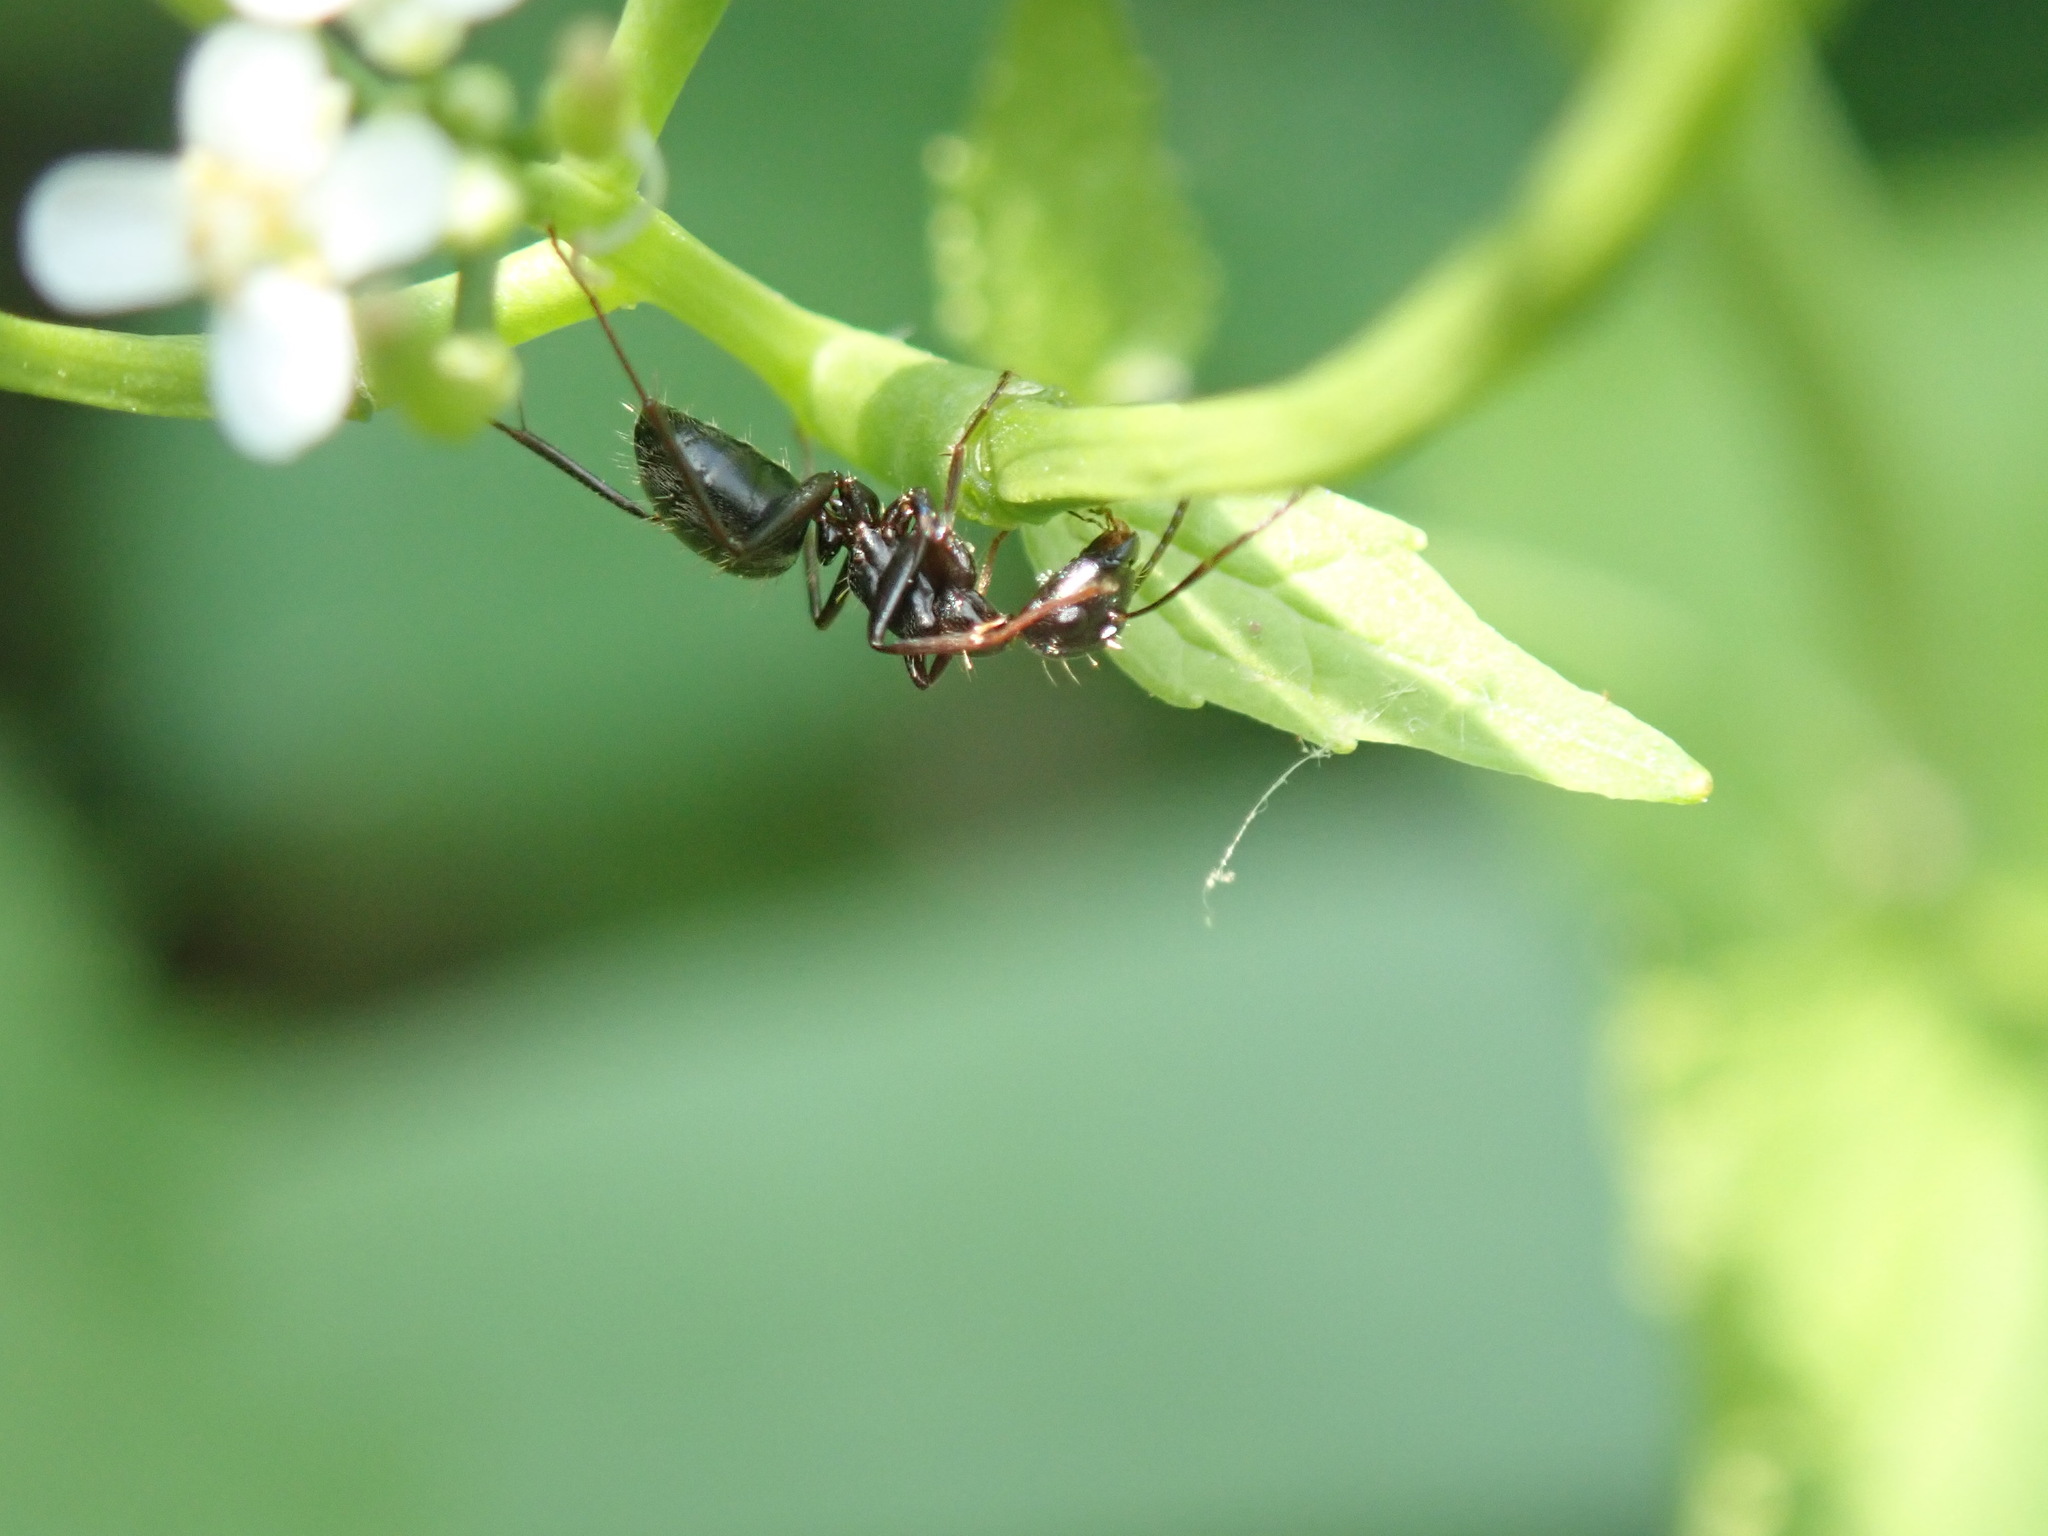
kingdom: Animalia
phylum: Arthropoda
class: Insecta
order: Hymenoptera
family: Formicidae
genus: Camponotus
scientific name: Camponotus pennsylvanicus
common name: Black carpenter ant
